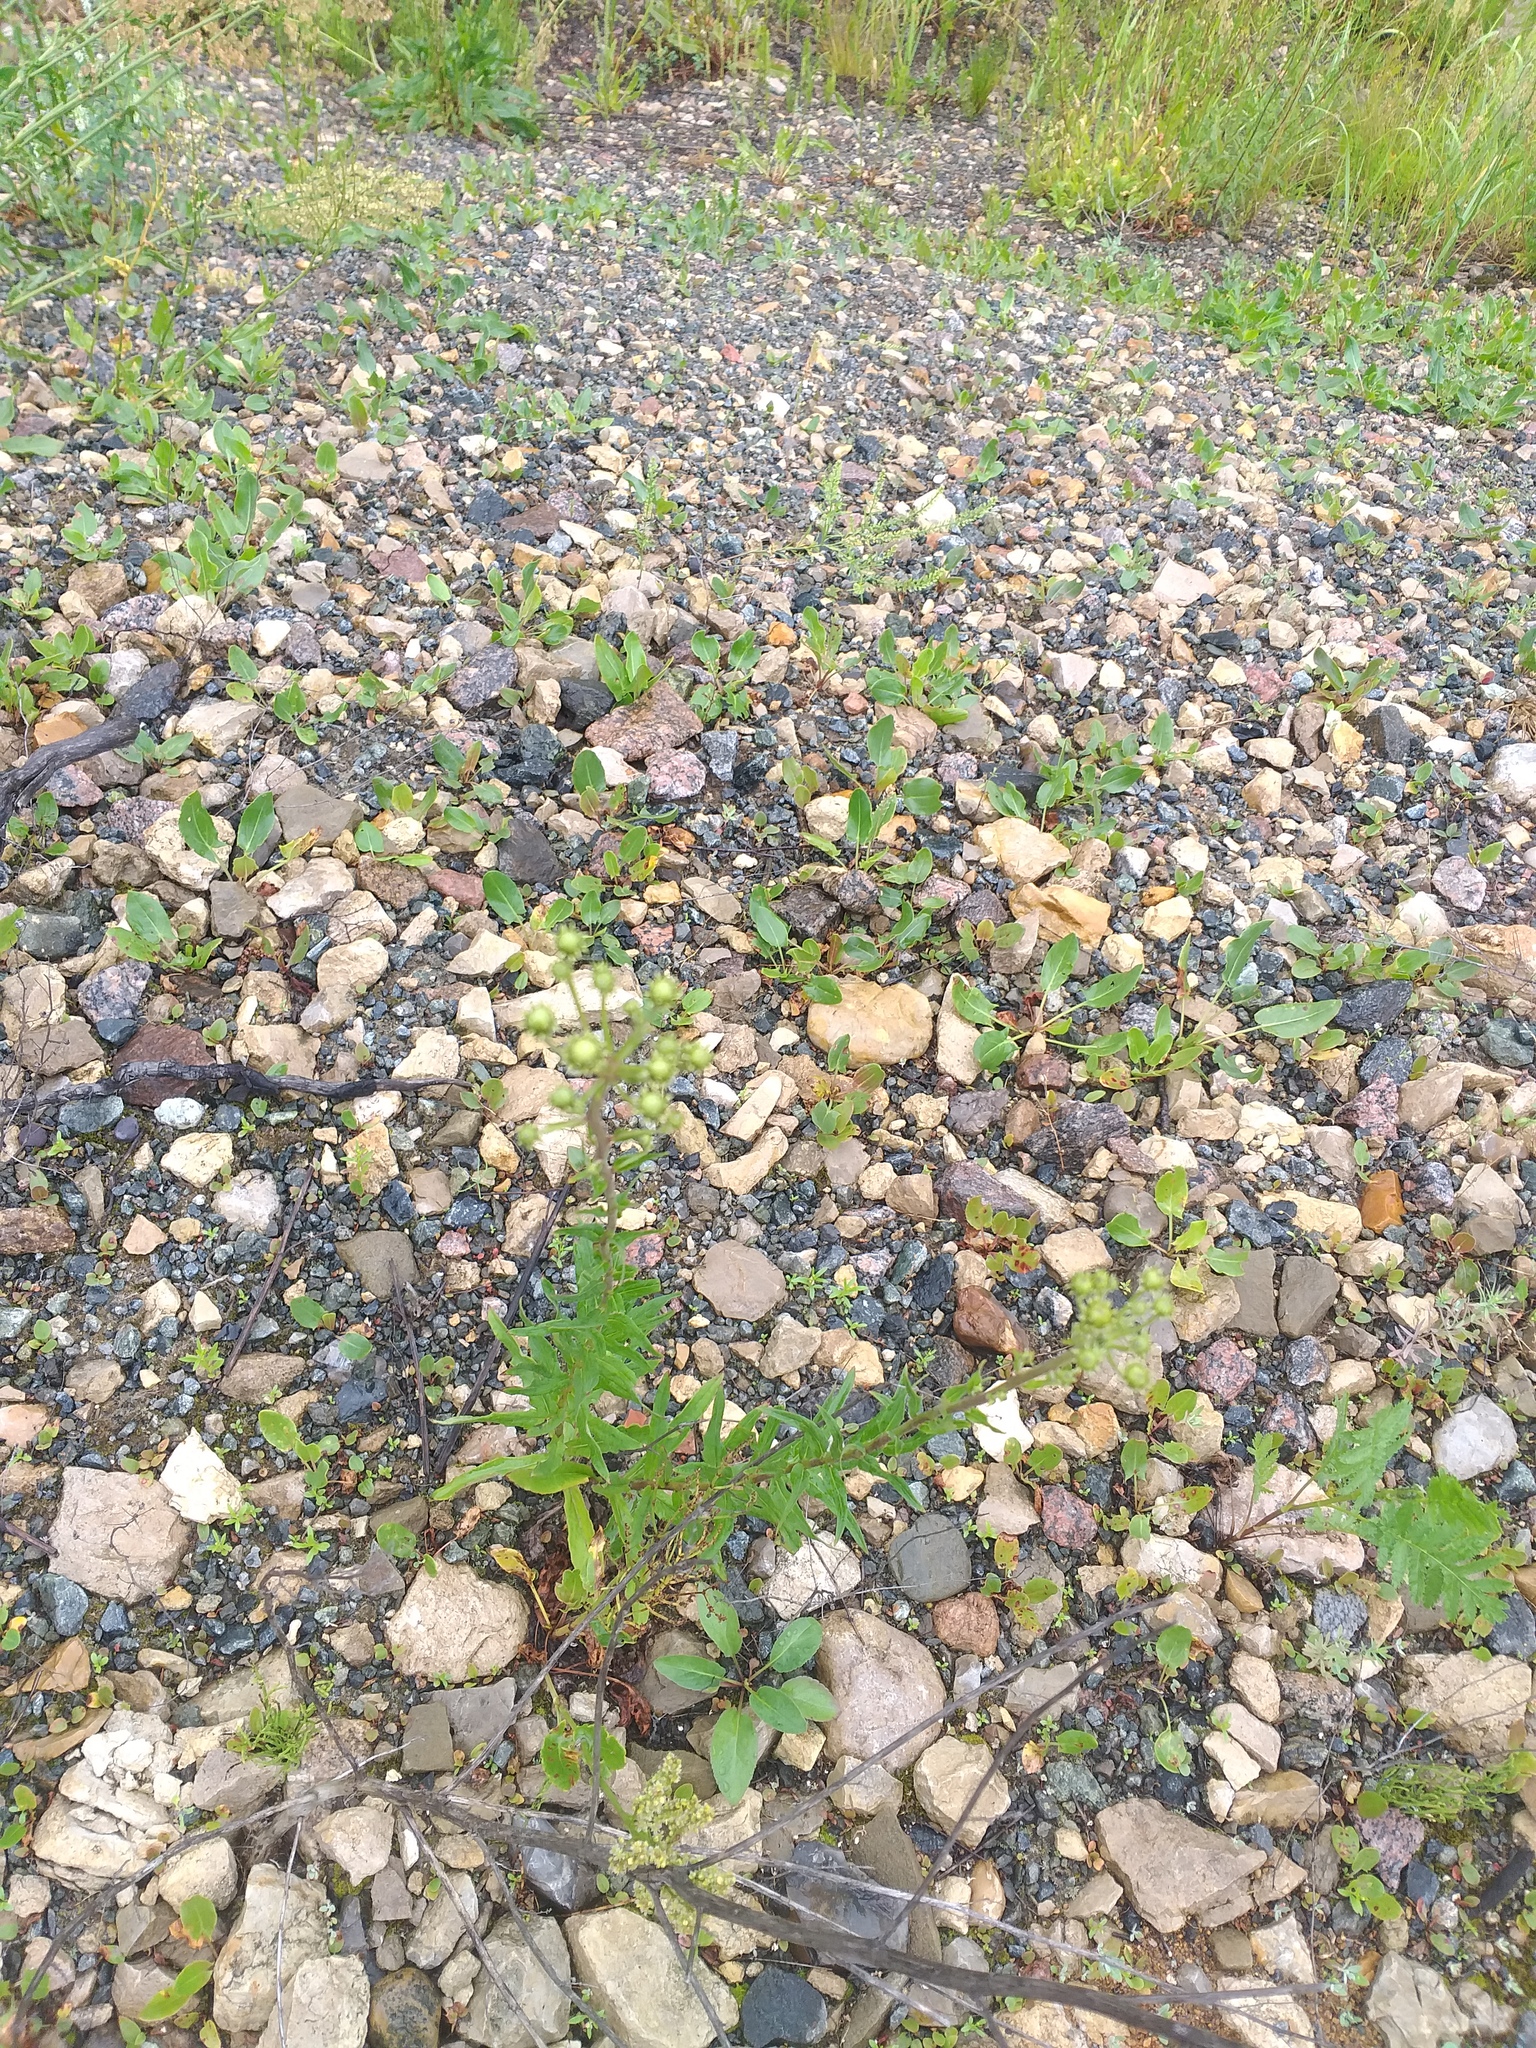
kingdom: Plantae
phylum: Tracheophyta
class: Magnoliopsida
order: Asterales
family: Asteraceae
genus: Hieracium
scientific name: Hieracium umbellatum
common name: Northern hawkweed
